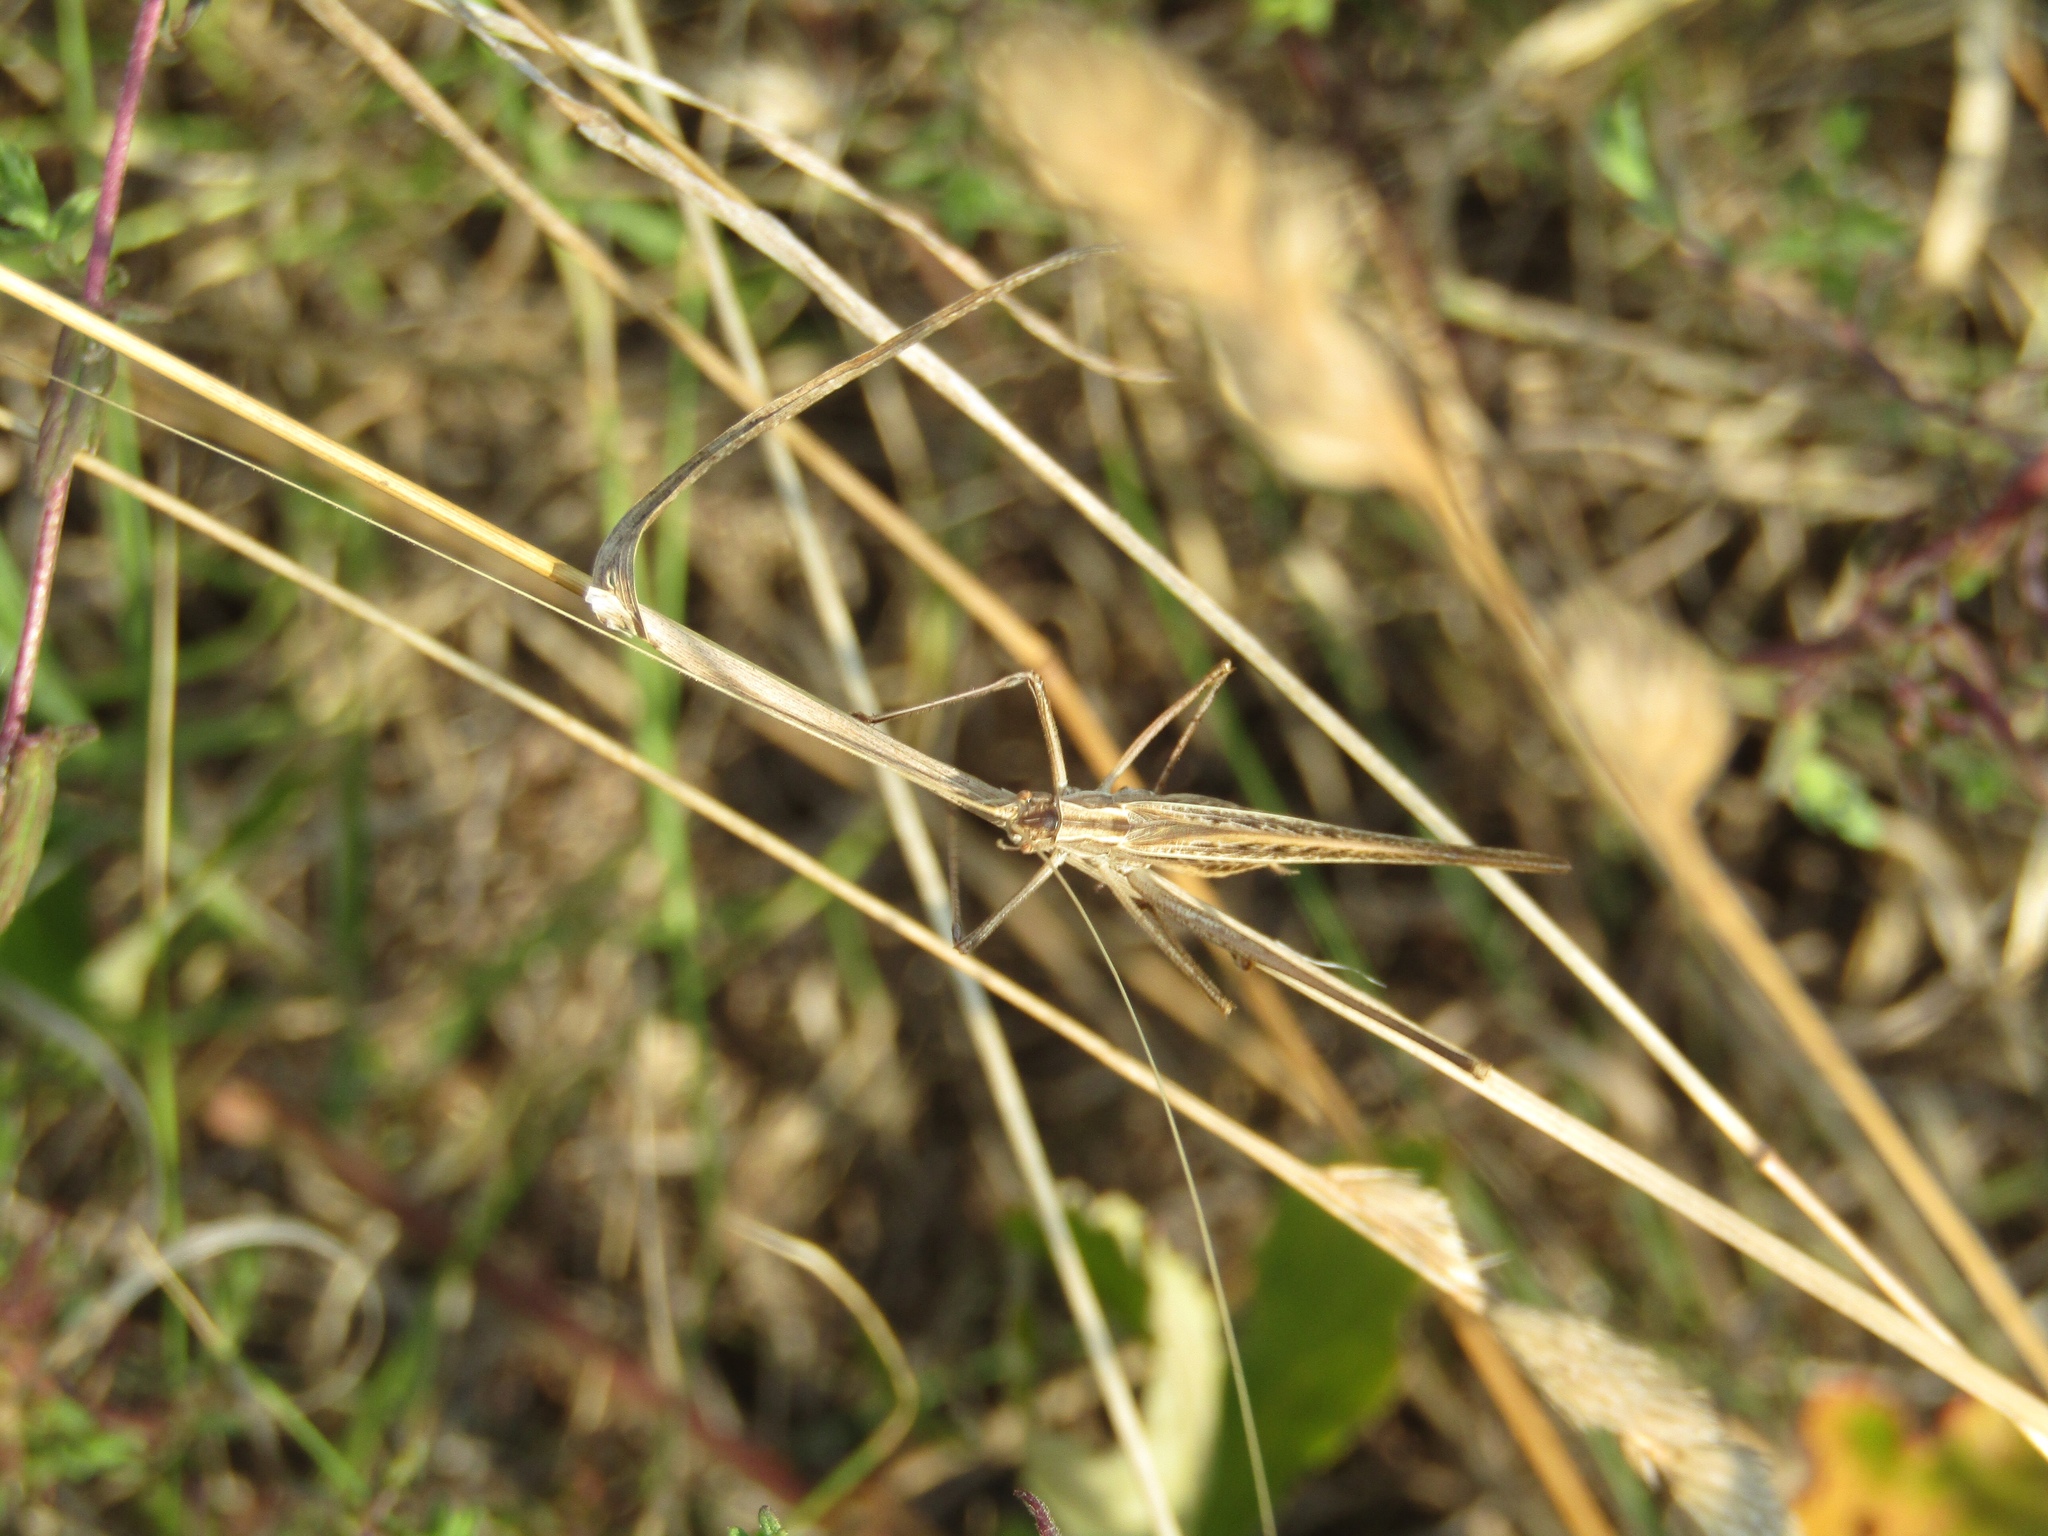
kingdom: Animalia
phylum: Arthropoda
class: Insecta
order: Orthoptera
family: Tettigoniidae
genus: Tylopsis
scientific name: Tylopsis lilifolia
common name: Lily bush-cricket
